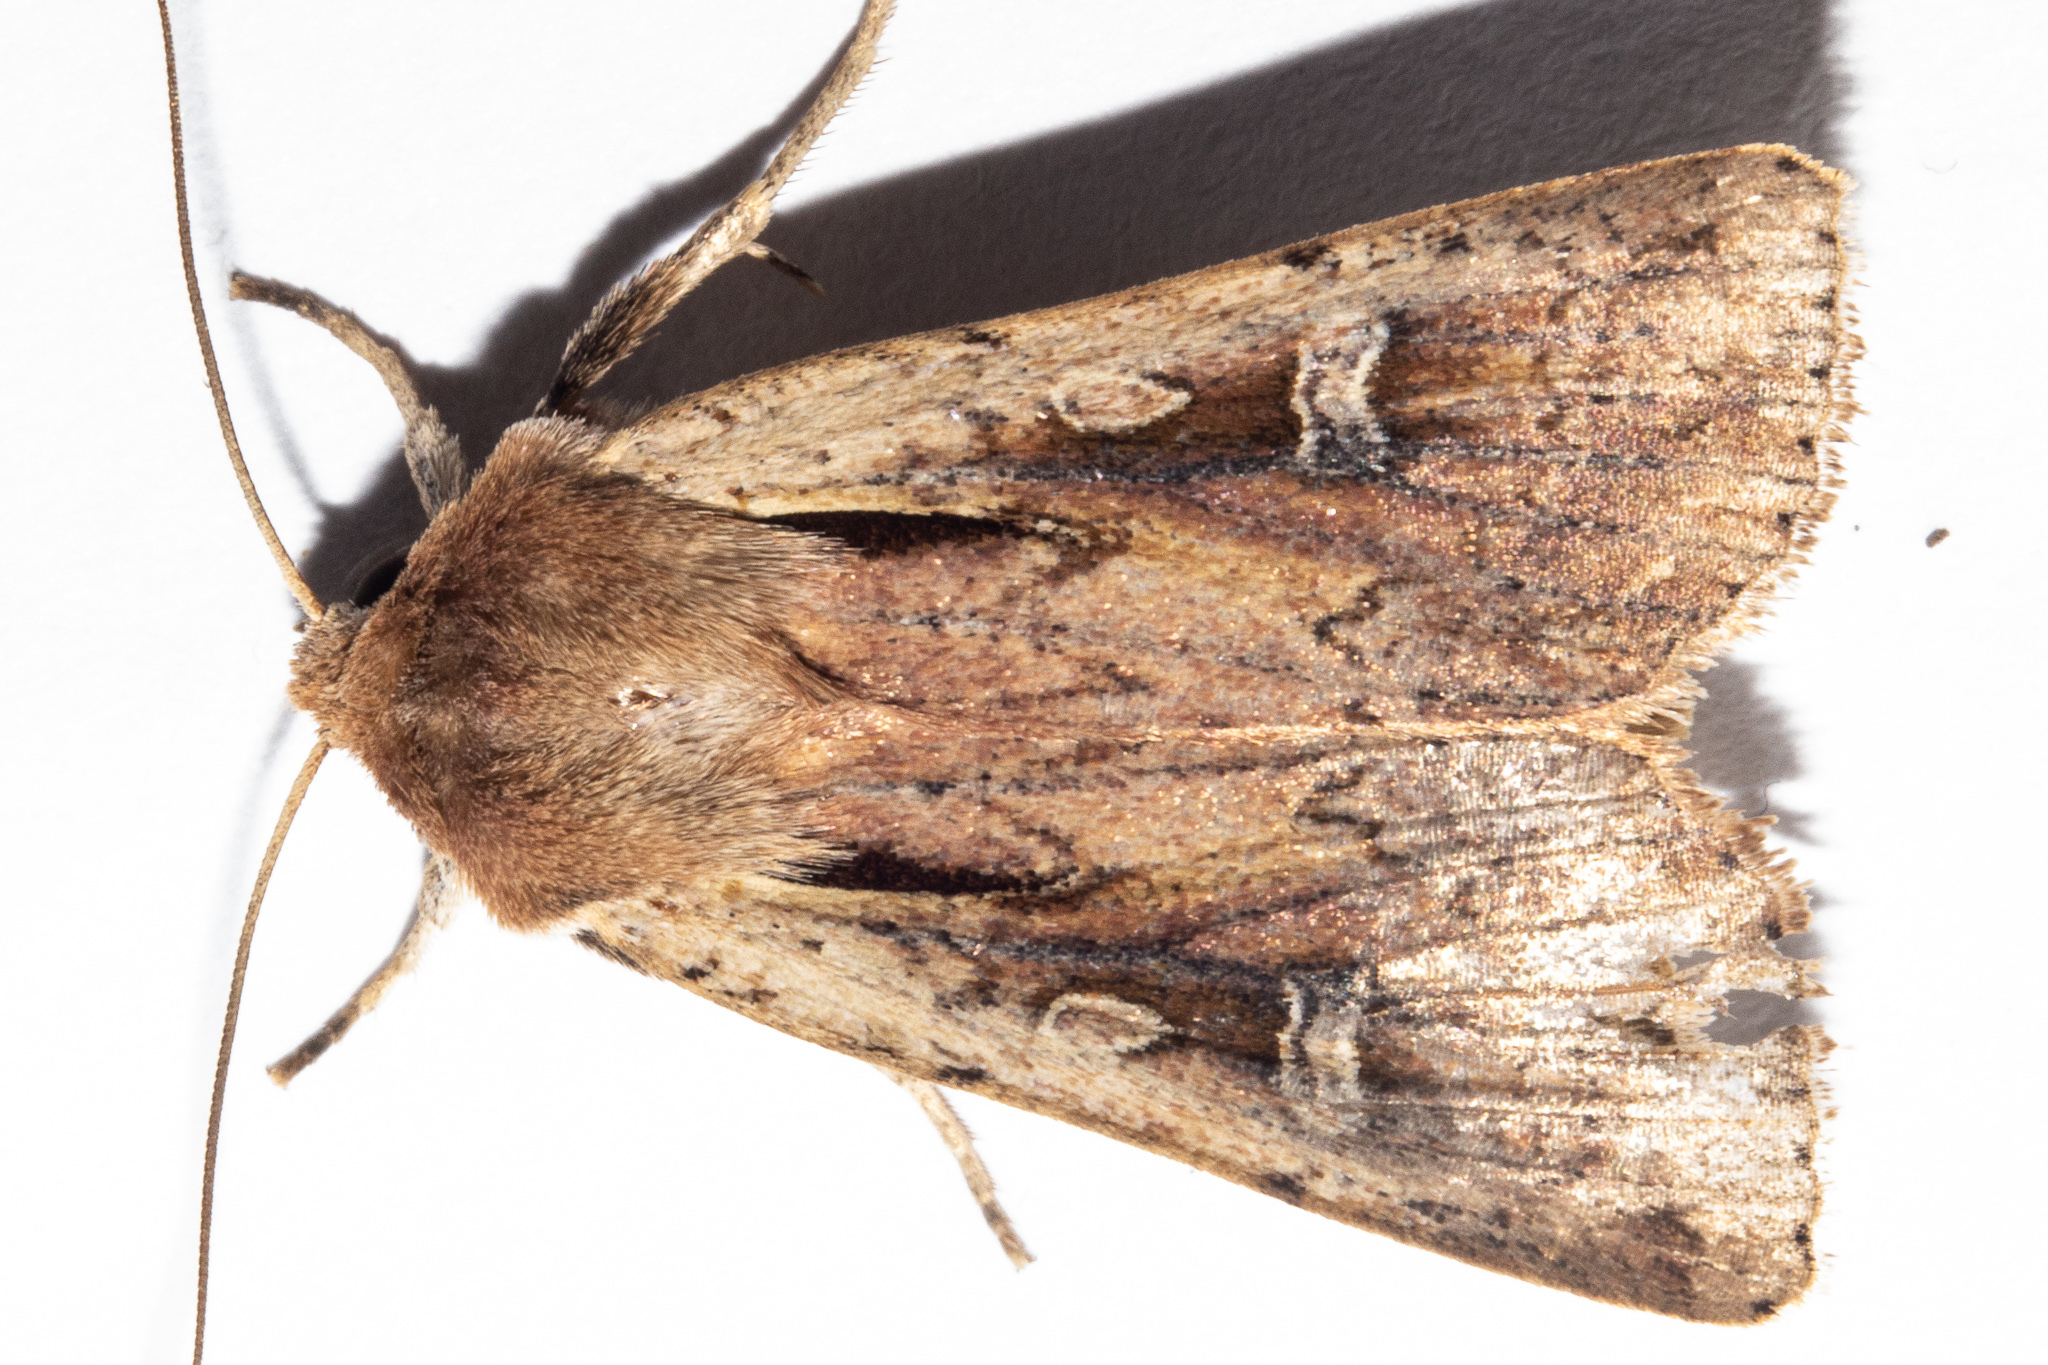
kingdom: Animalia
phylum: Arthropoda
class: Insecta
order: Lepidoptera
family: Noctuidae
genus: Ichneutica
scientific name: Ichneutica atristriga
